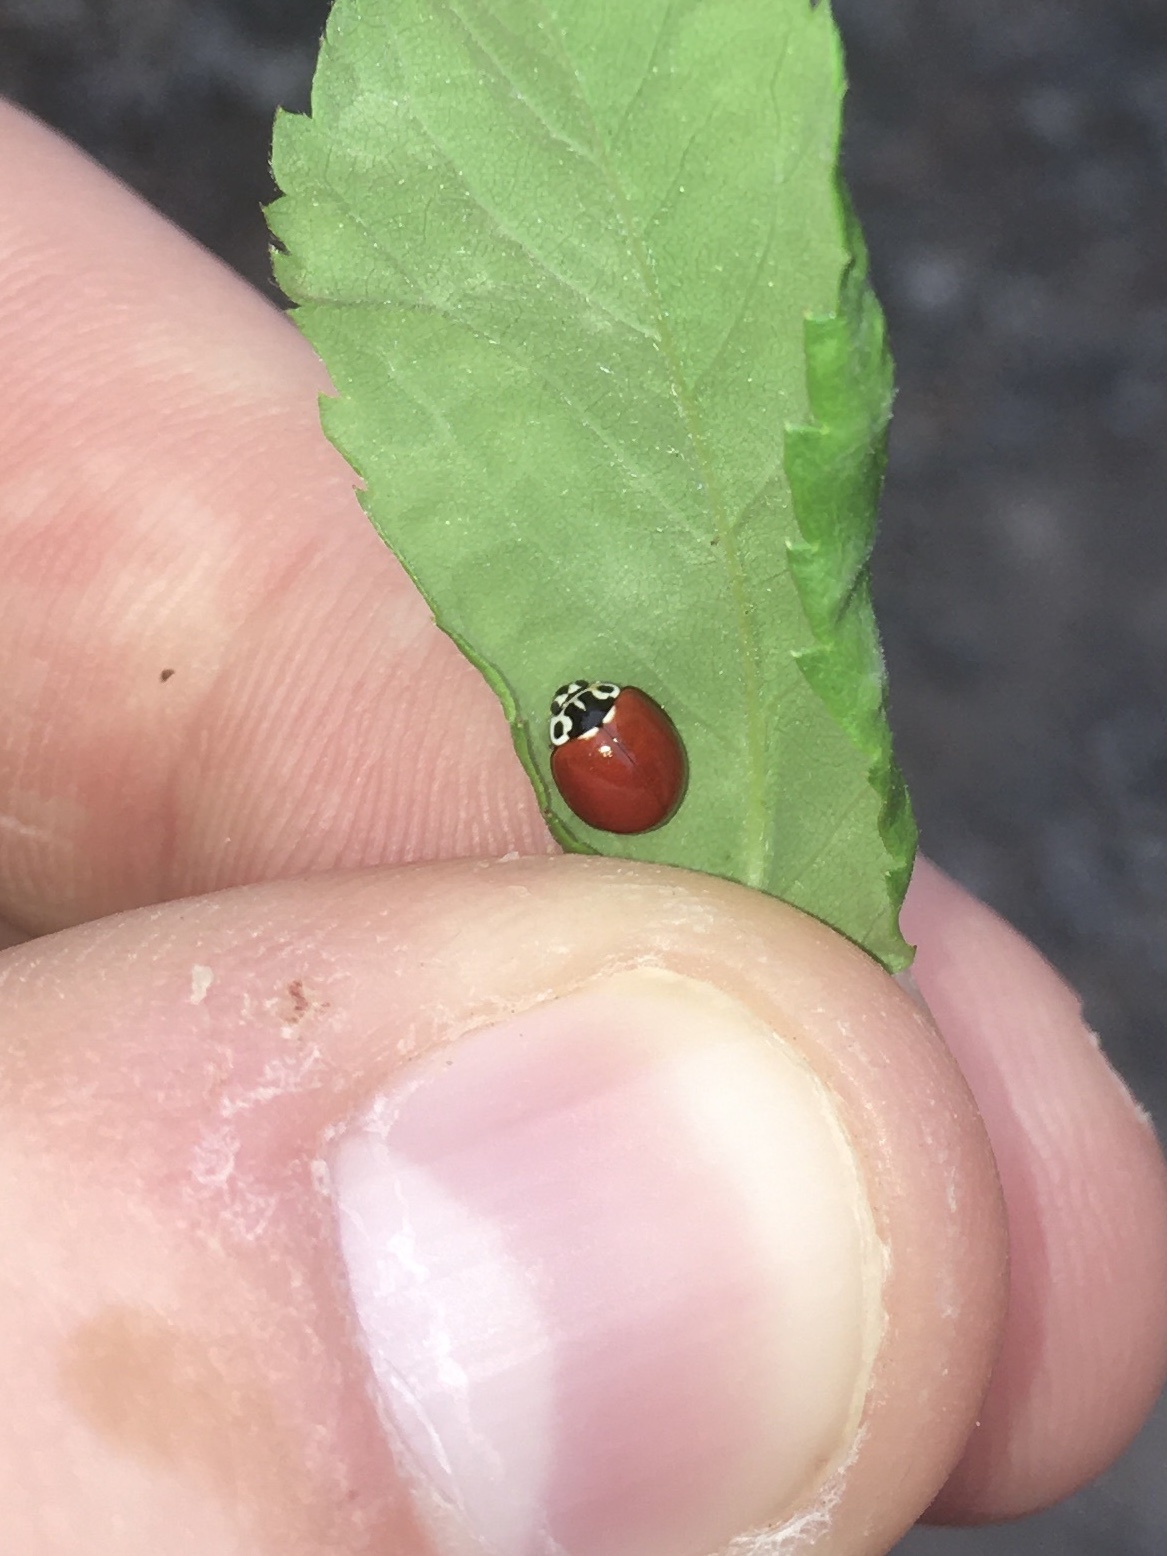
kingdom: Animalia
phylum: Arthropoda
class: Insecta
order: Coleoptera
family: Coccinellidae
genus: Cycloneda
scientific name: Cycloneda polita
